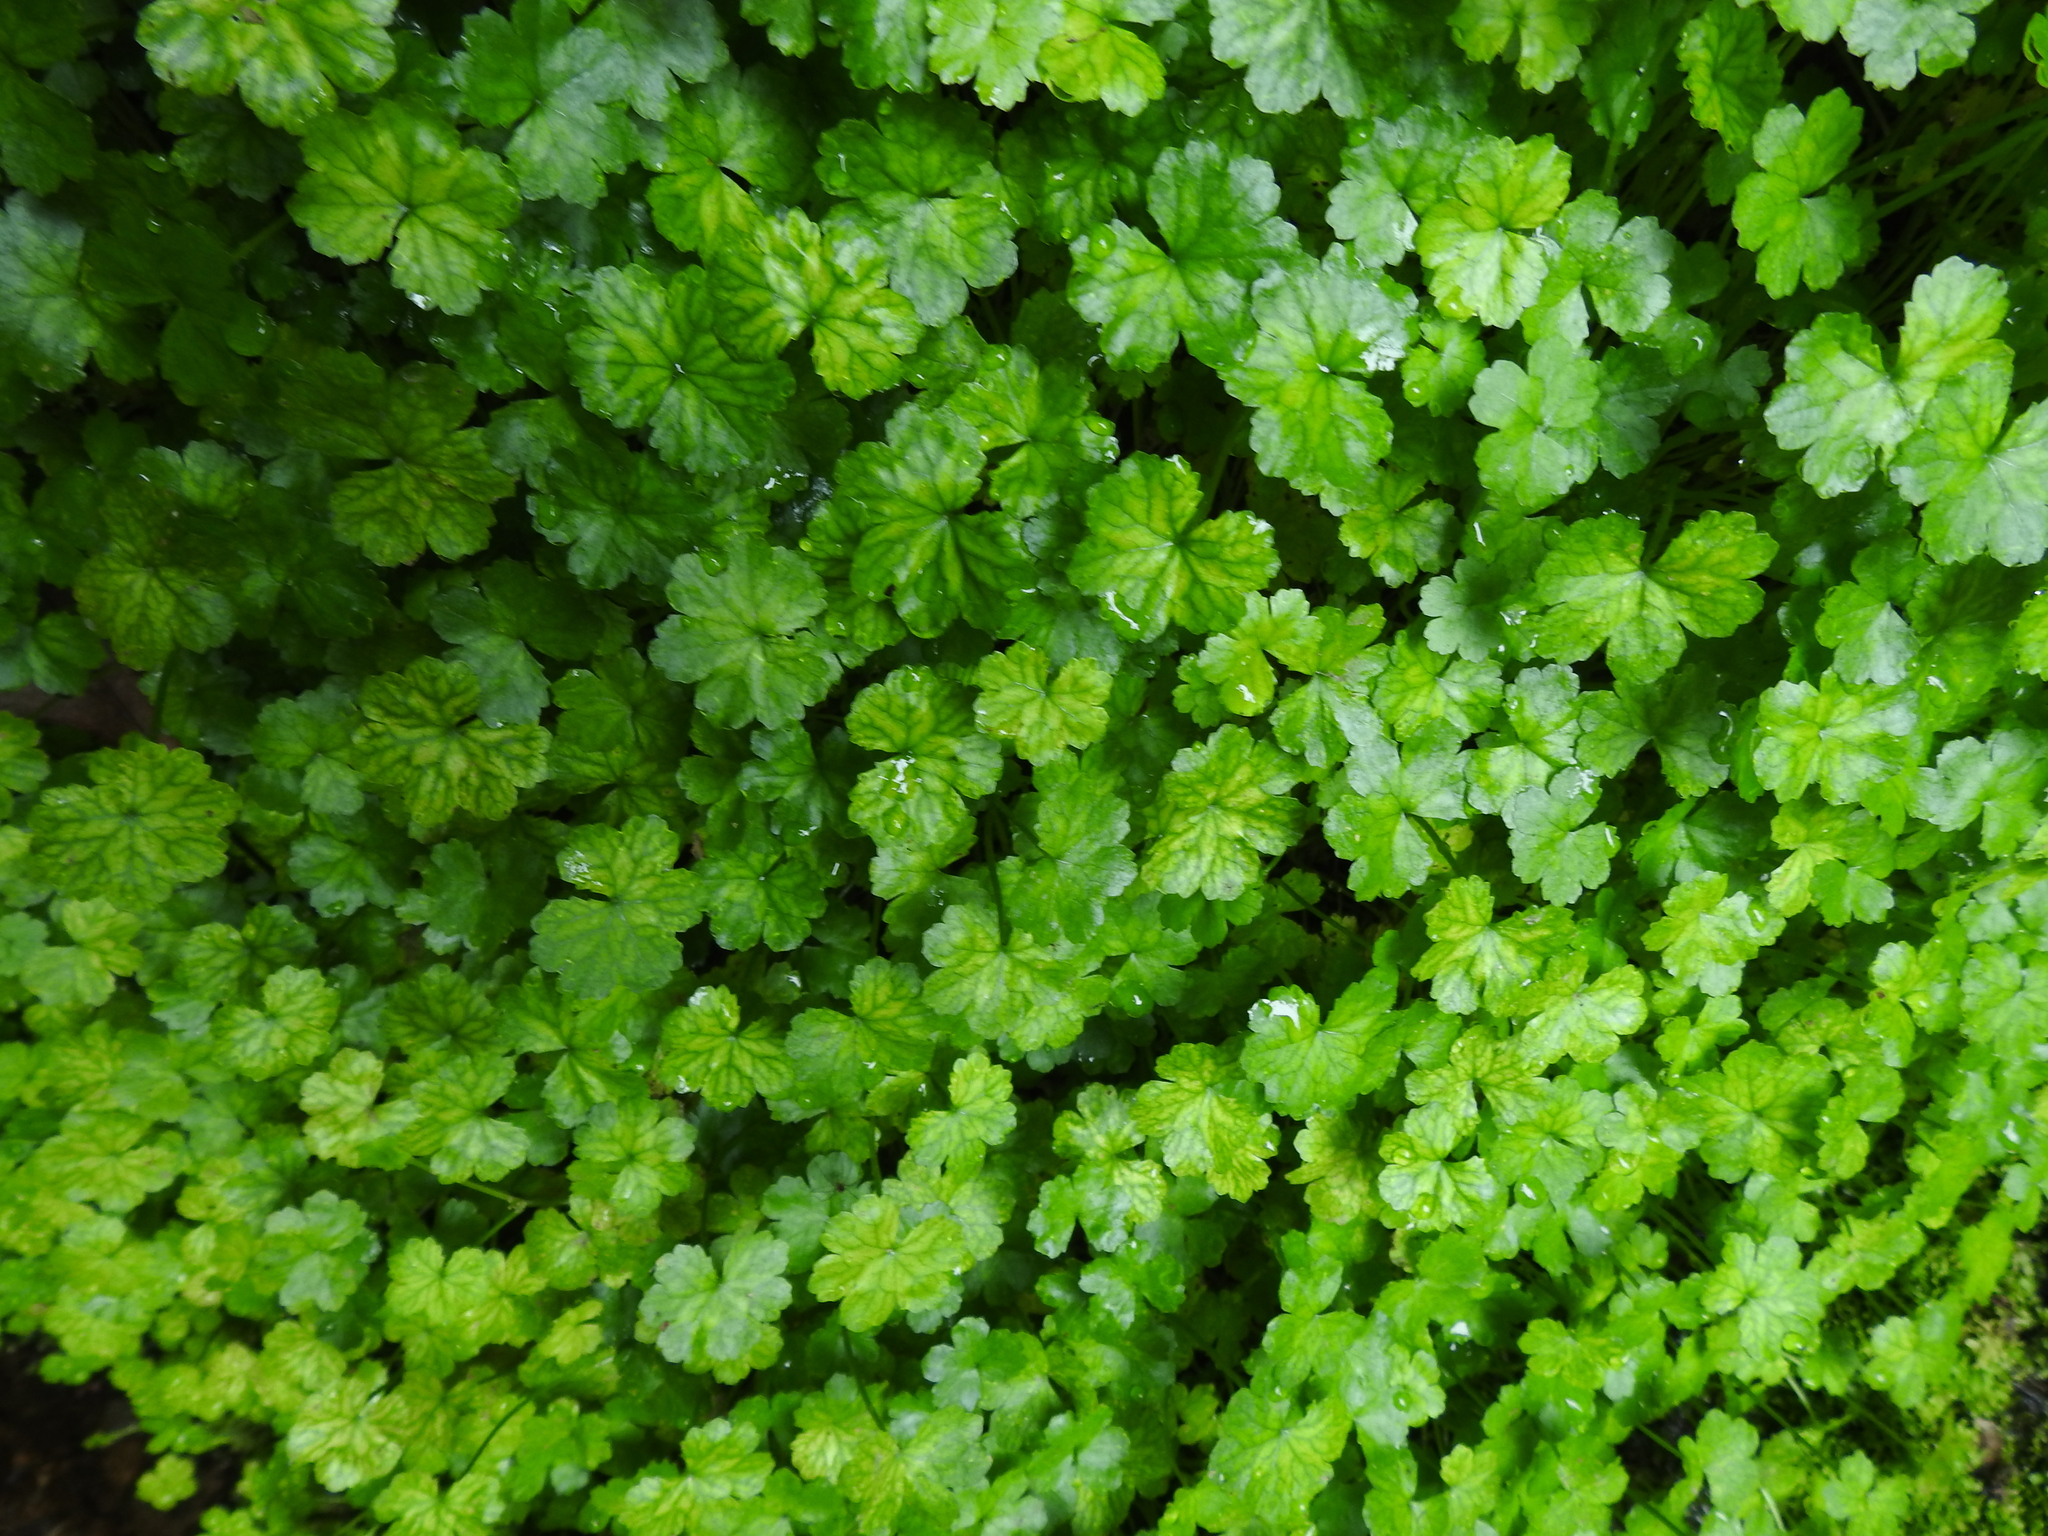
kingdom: Plantae
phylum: Tracheophyta
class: Magnoliopsida
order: Apiales
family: Araliaceae
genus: Hydrocotyle
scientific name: Hydrocotyle heteromeria
